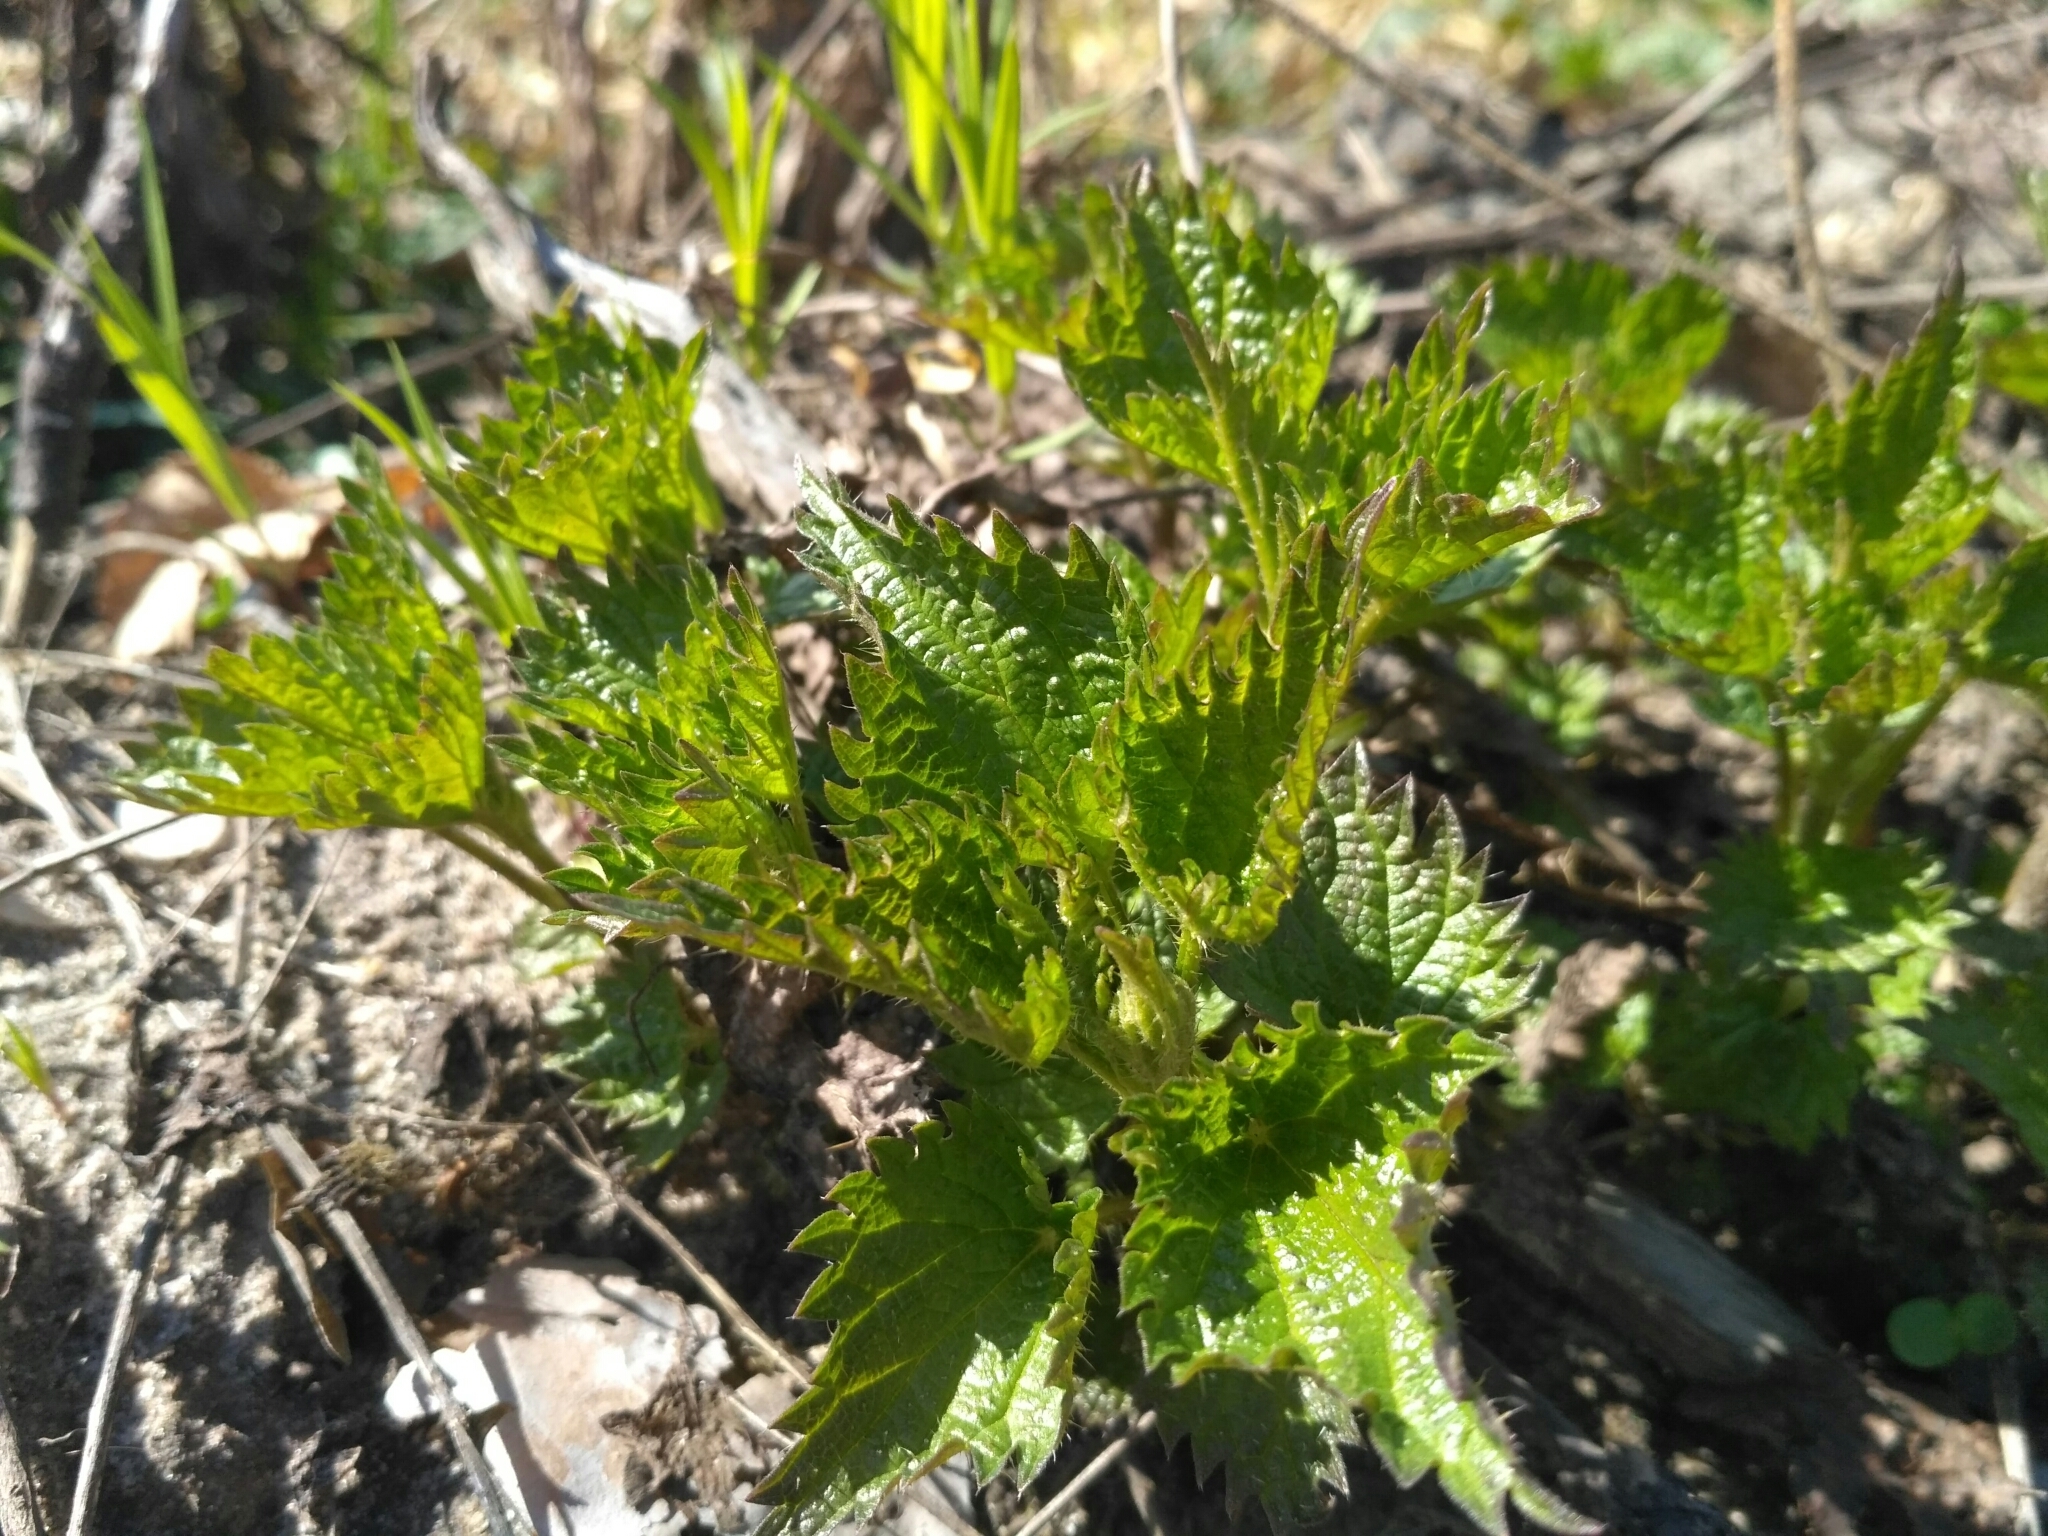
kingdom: Plantae
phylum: Tracheophyta
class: Magnoliopsida
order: Rosales
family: Urticaceae
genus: Urtica
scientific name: Urtica dioica
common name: Common nettle
